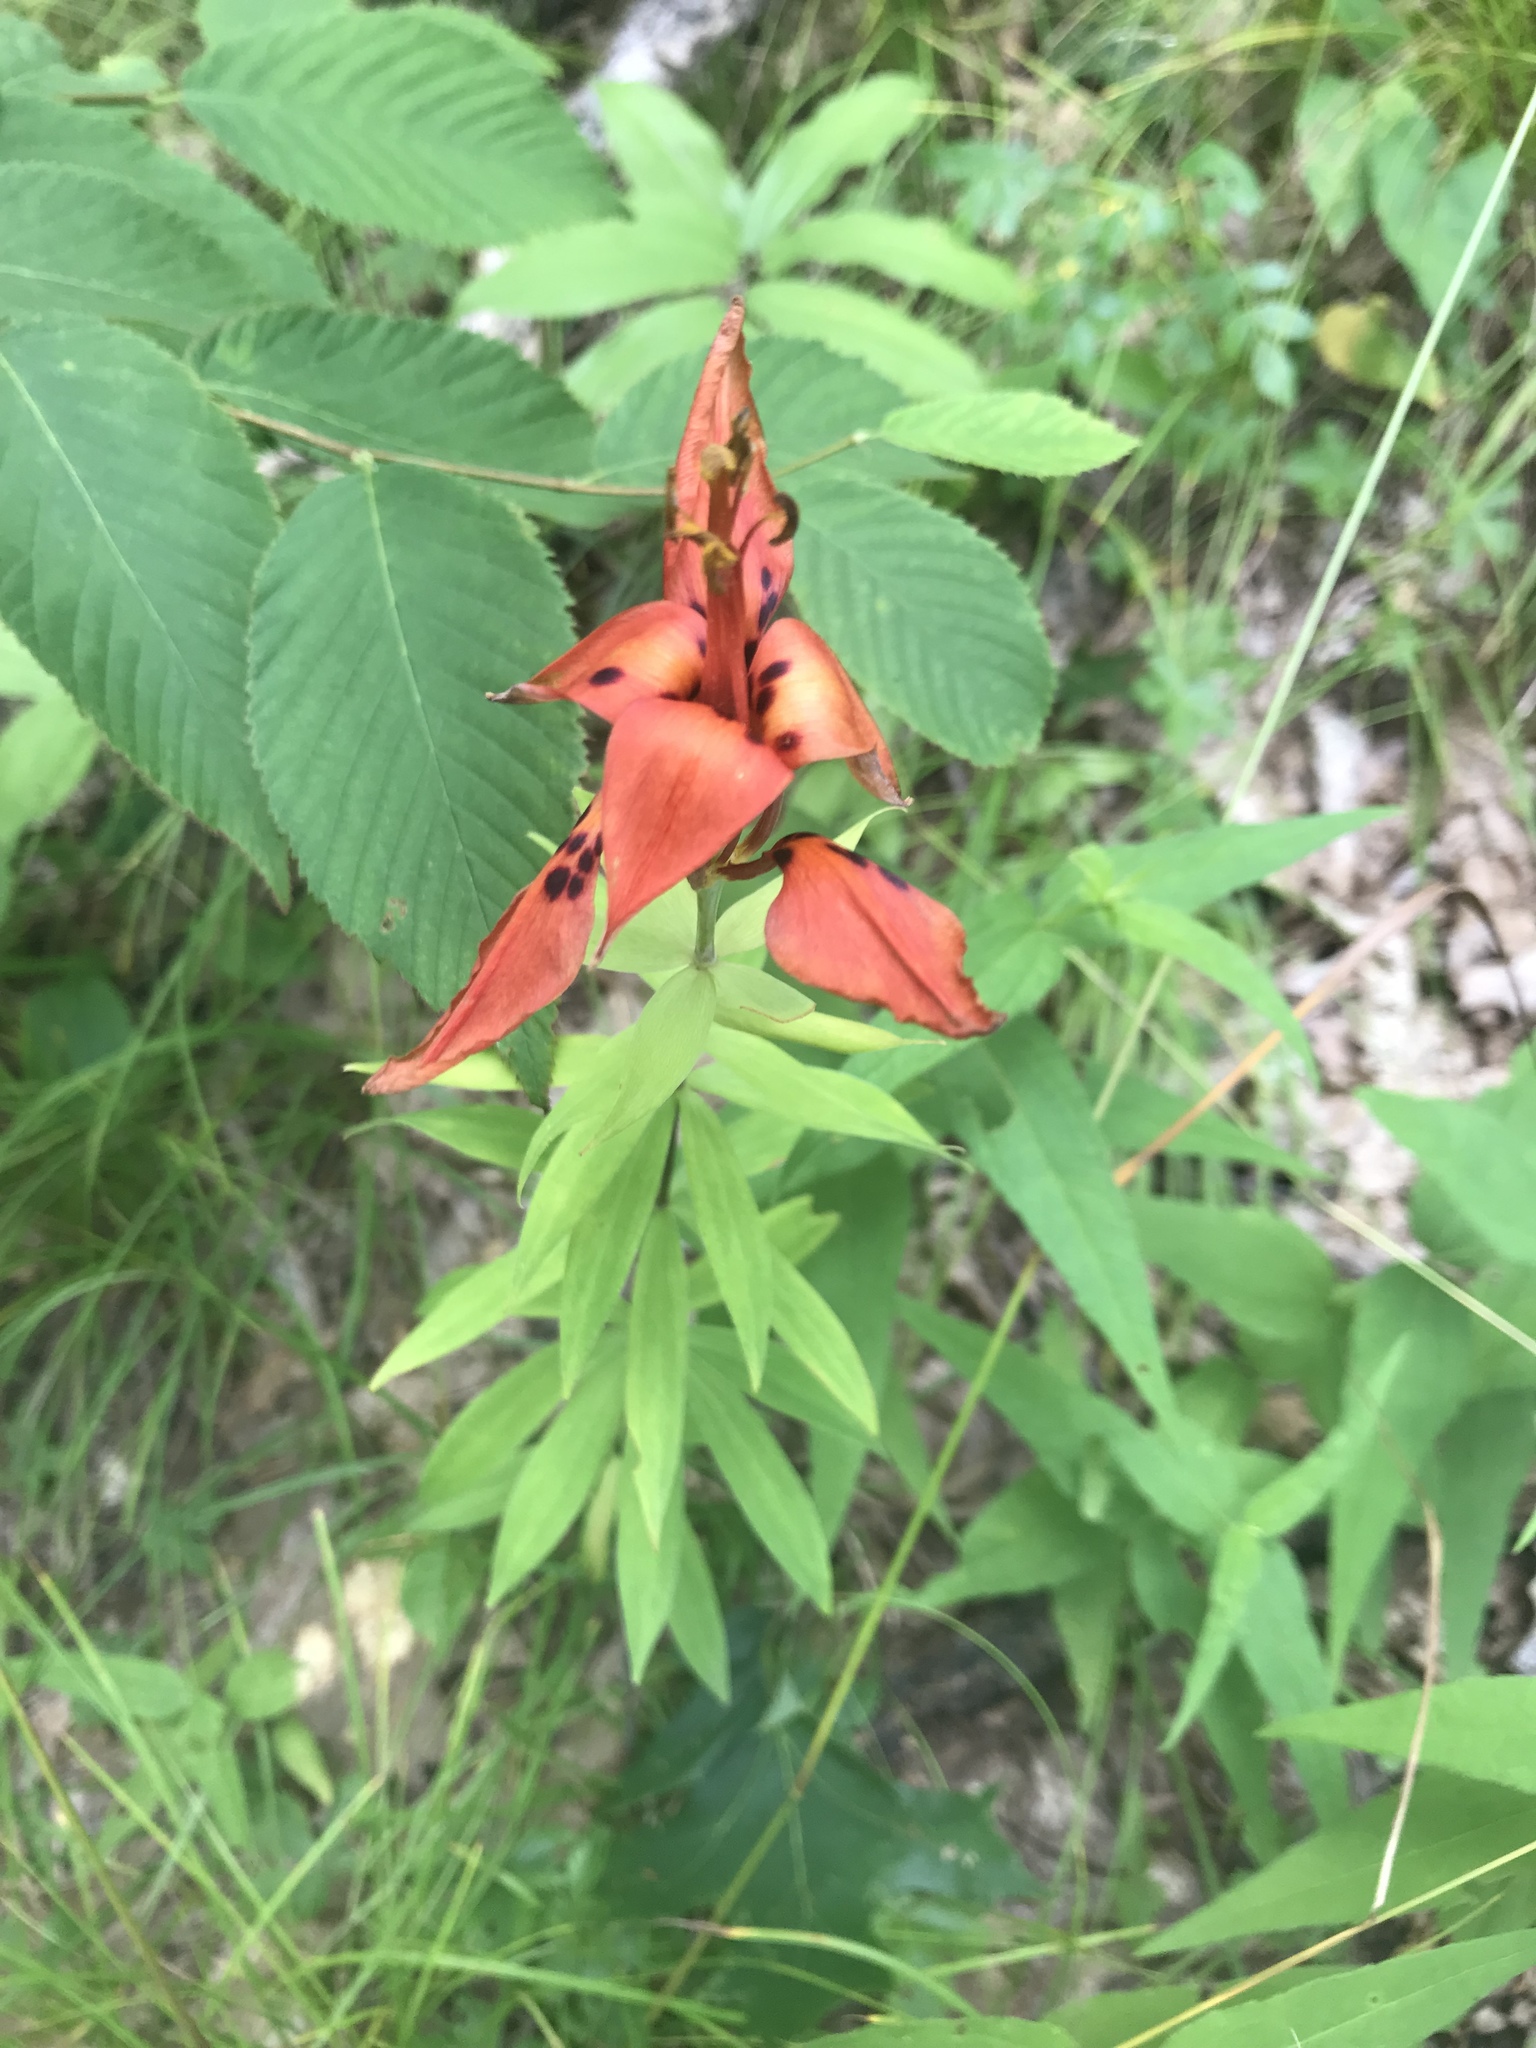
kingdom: Plantae
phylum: Tracheophyta
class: Liliopsida
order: Liliales
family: Liliaceae
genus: Lilium
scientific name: Lilium philadelphicum
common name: Red lily
